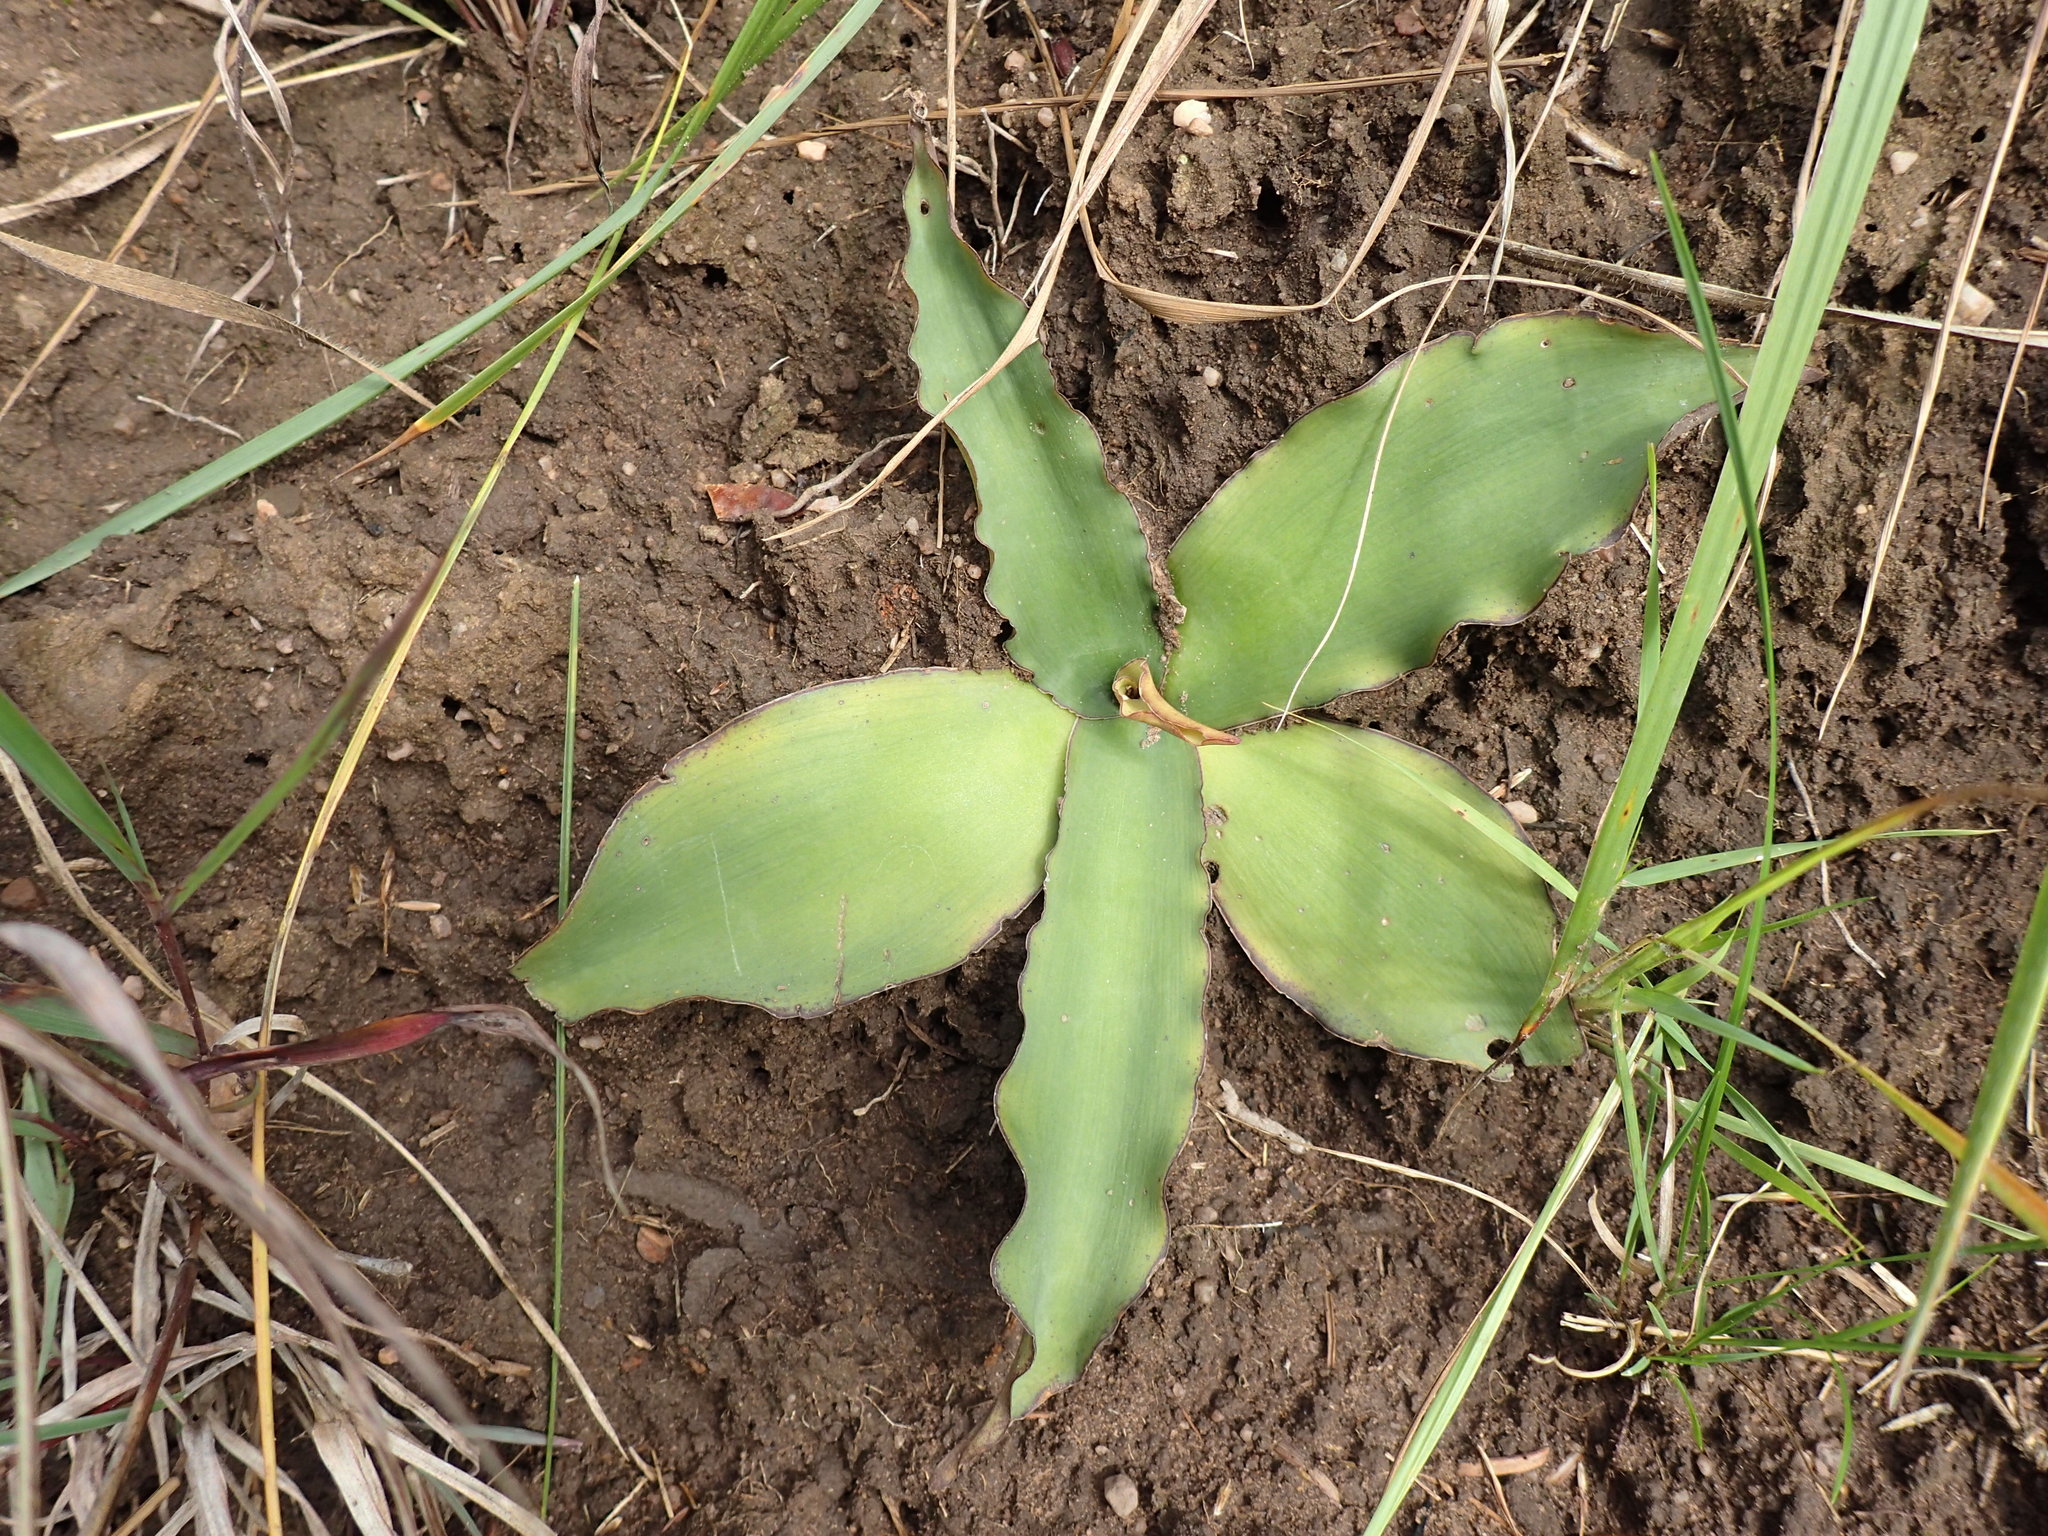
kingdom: Plantae
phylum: Tracheophyta
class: Liliopsida
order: Asparagales
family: Asparagaceae
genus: Ledebouria
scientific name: Ledebouria ovatifolia
